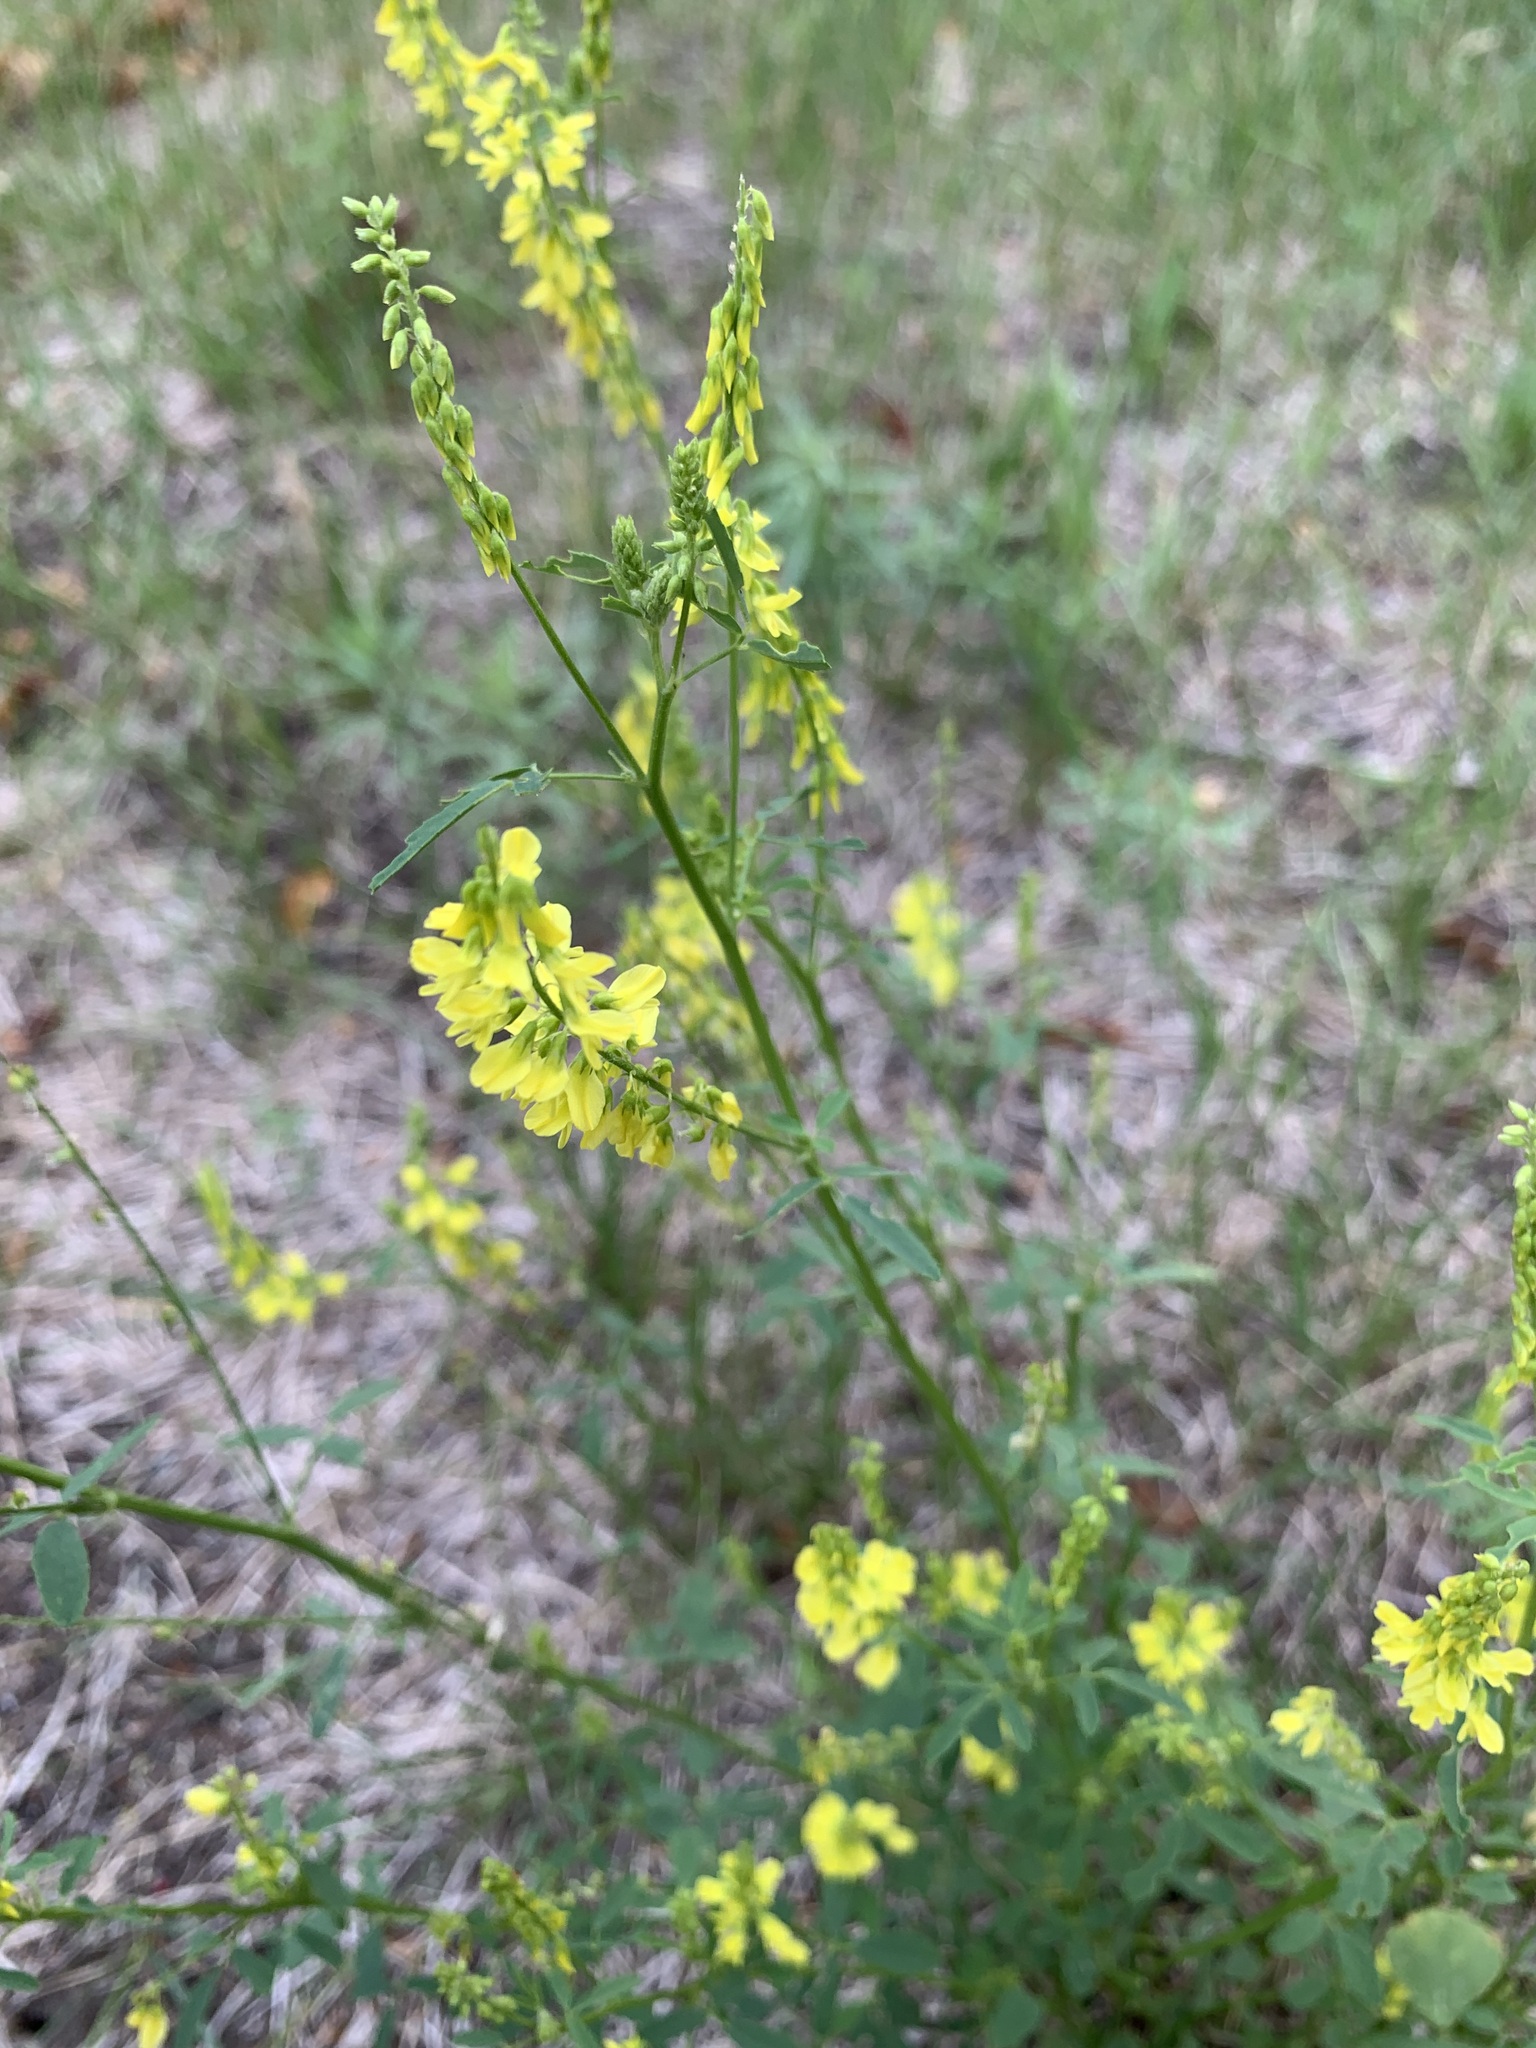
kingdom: Plantae
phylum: Tracheophyta
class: Magnoliopsida
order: Fabales
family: Fabaceae
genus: Melilotus
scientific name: Melilotus officinalis
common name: Sweetclover
